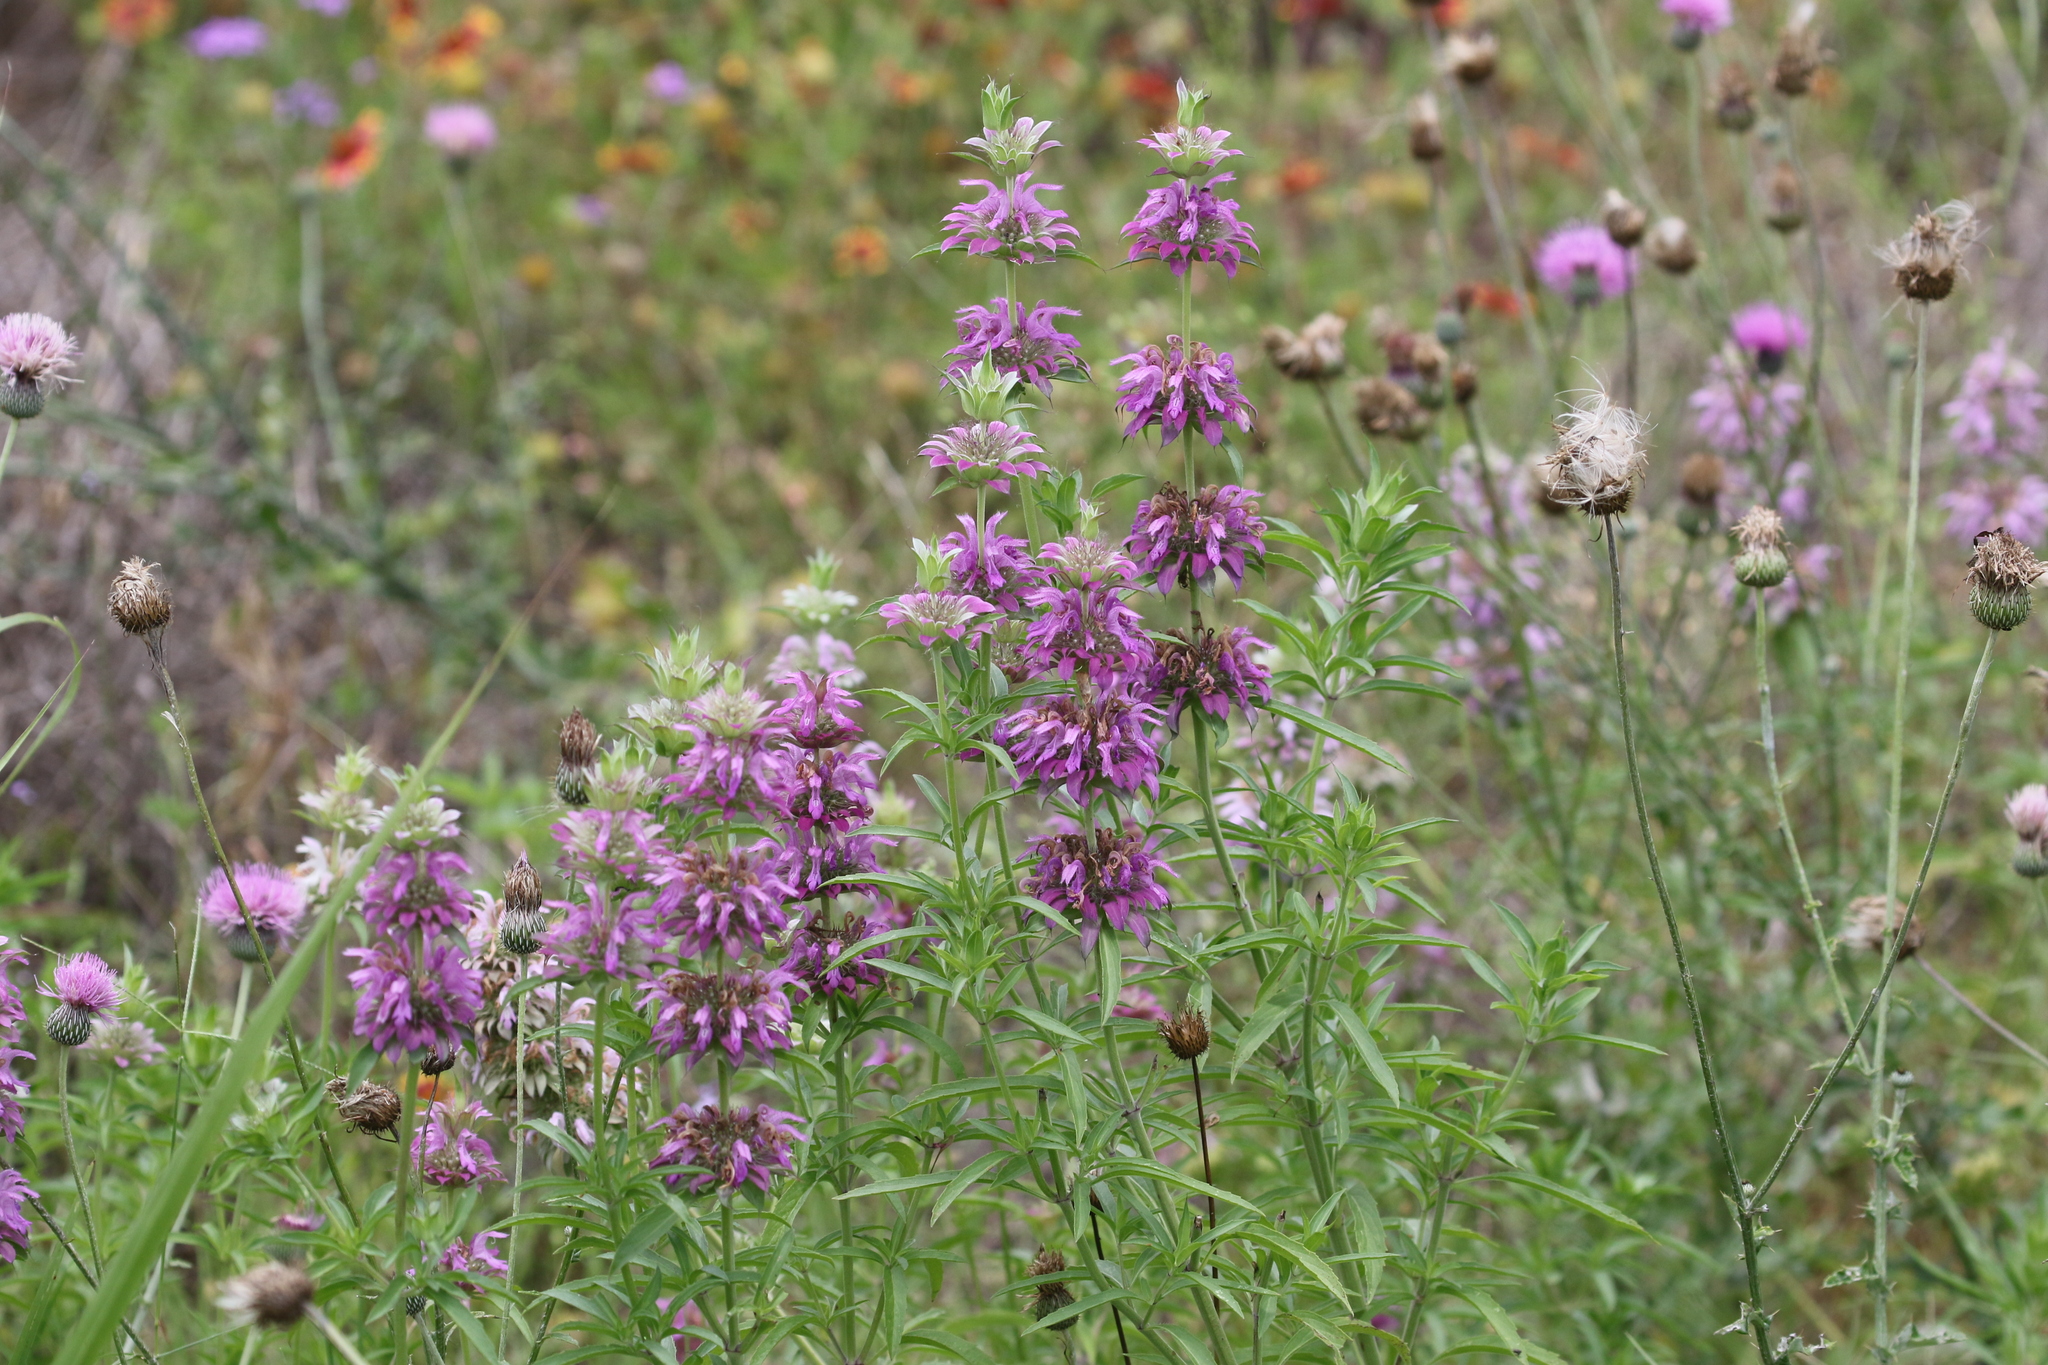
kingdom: Plantae
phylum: Tracheophyta
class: Magnoliopsida
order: Lamiales
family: Lamiaceae
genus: Monarda
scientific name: Monarda citriodora
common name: Lemon beebalm
